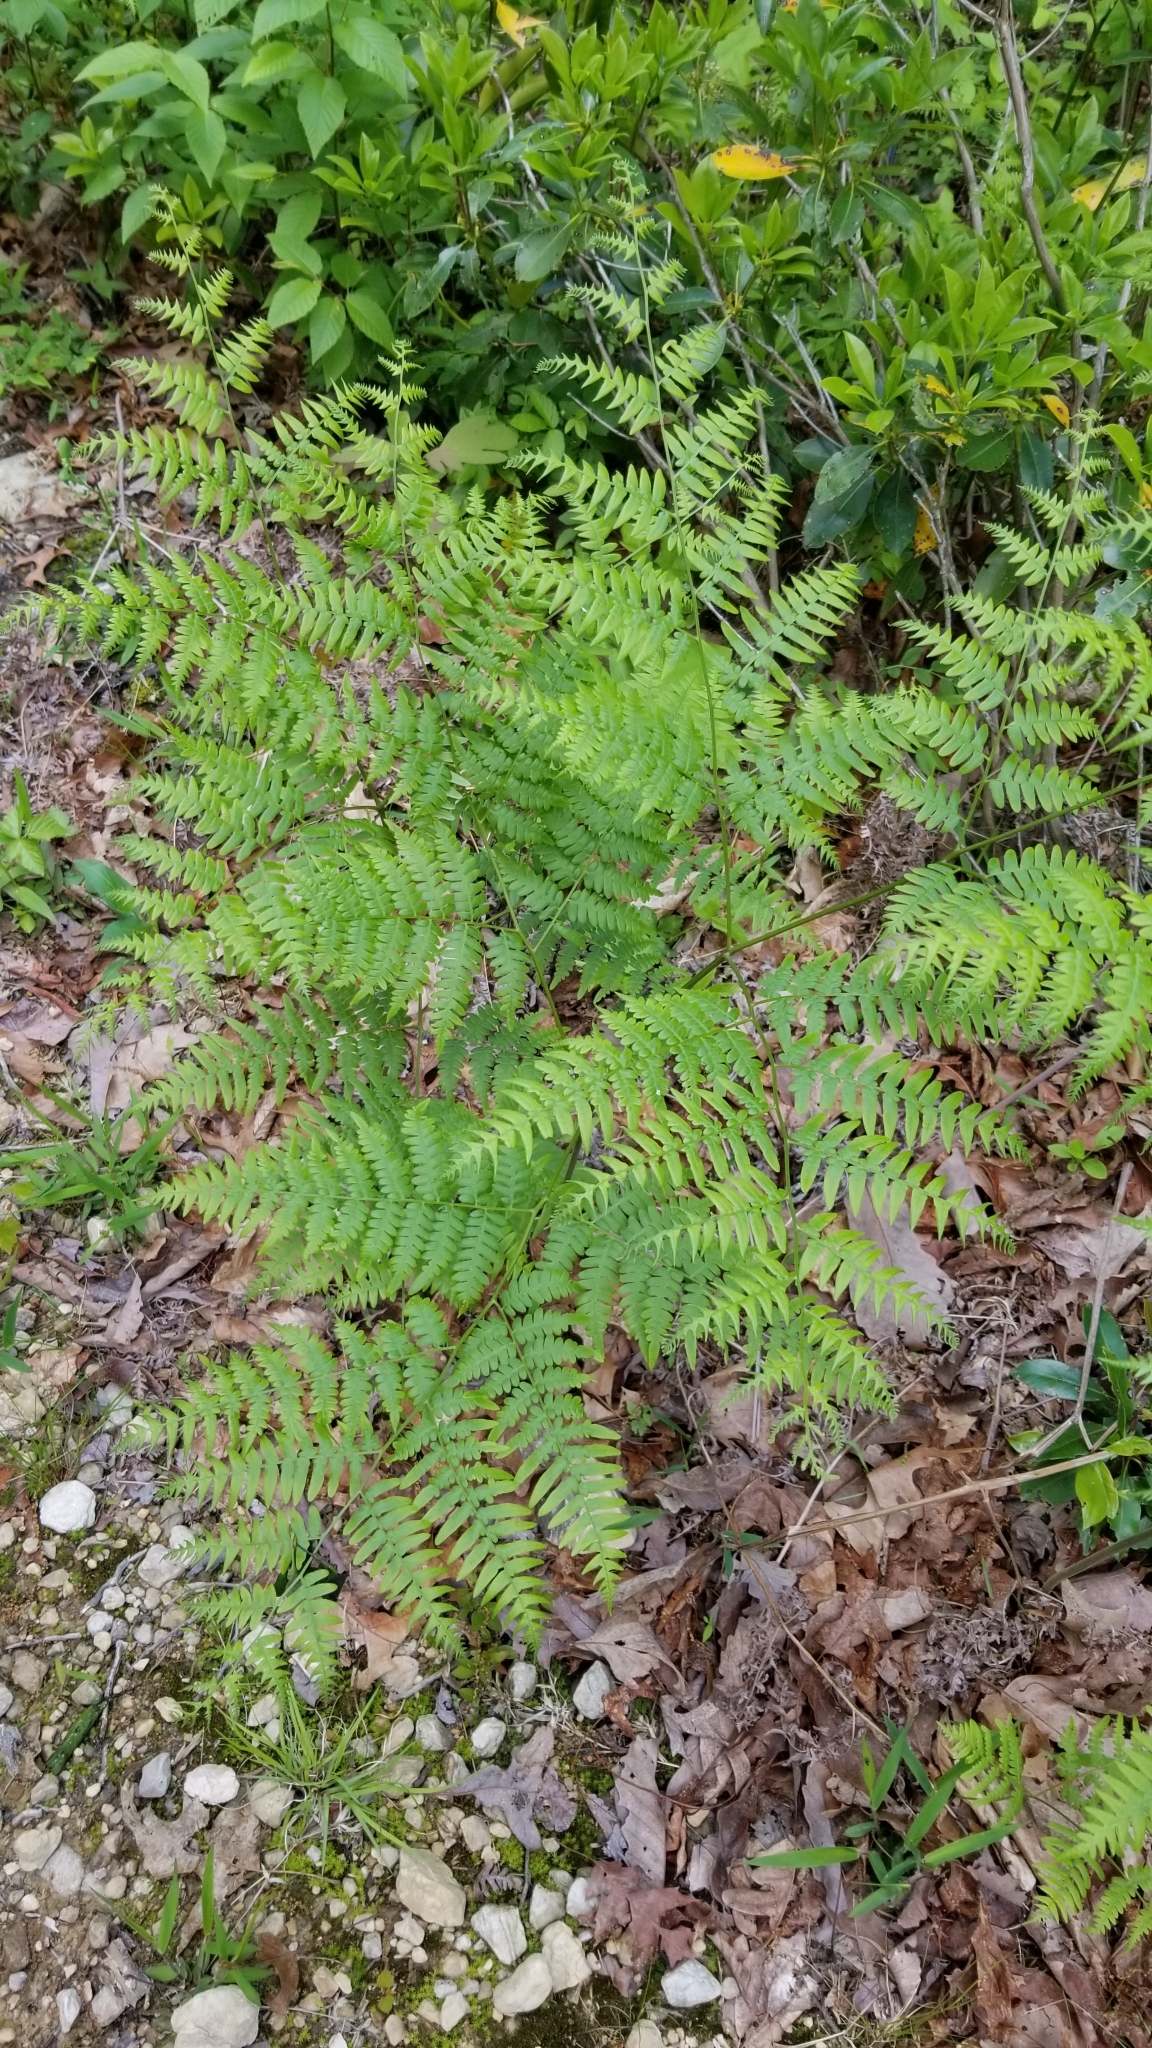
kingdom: Plantae
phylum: Tracheophyta
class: Polypodiopsida
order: Polypodiales
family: Dennstaedtiaceae
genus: Pteridium
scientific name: Pteridium aquilinum
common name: Bracken
